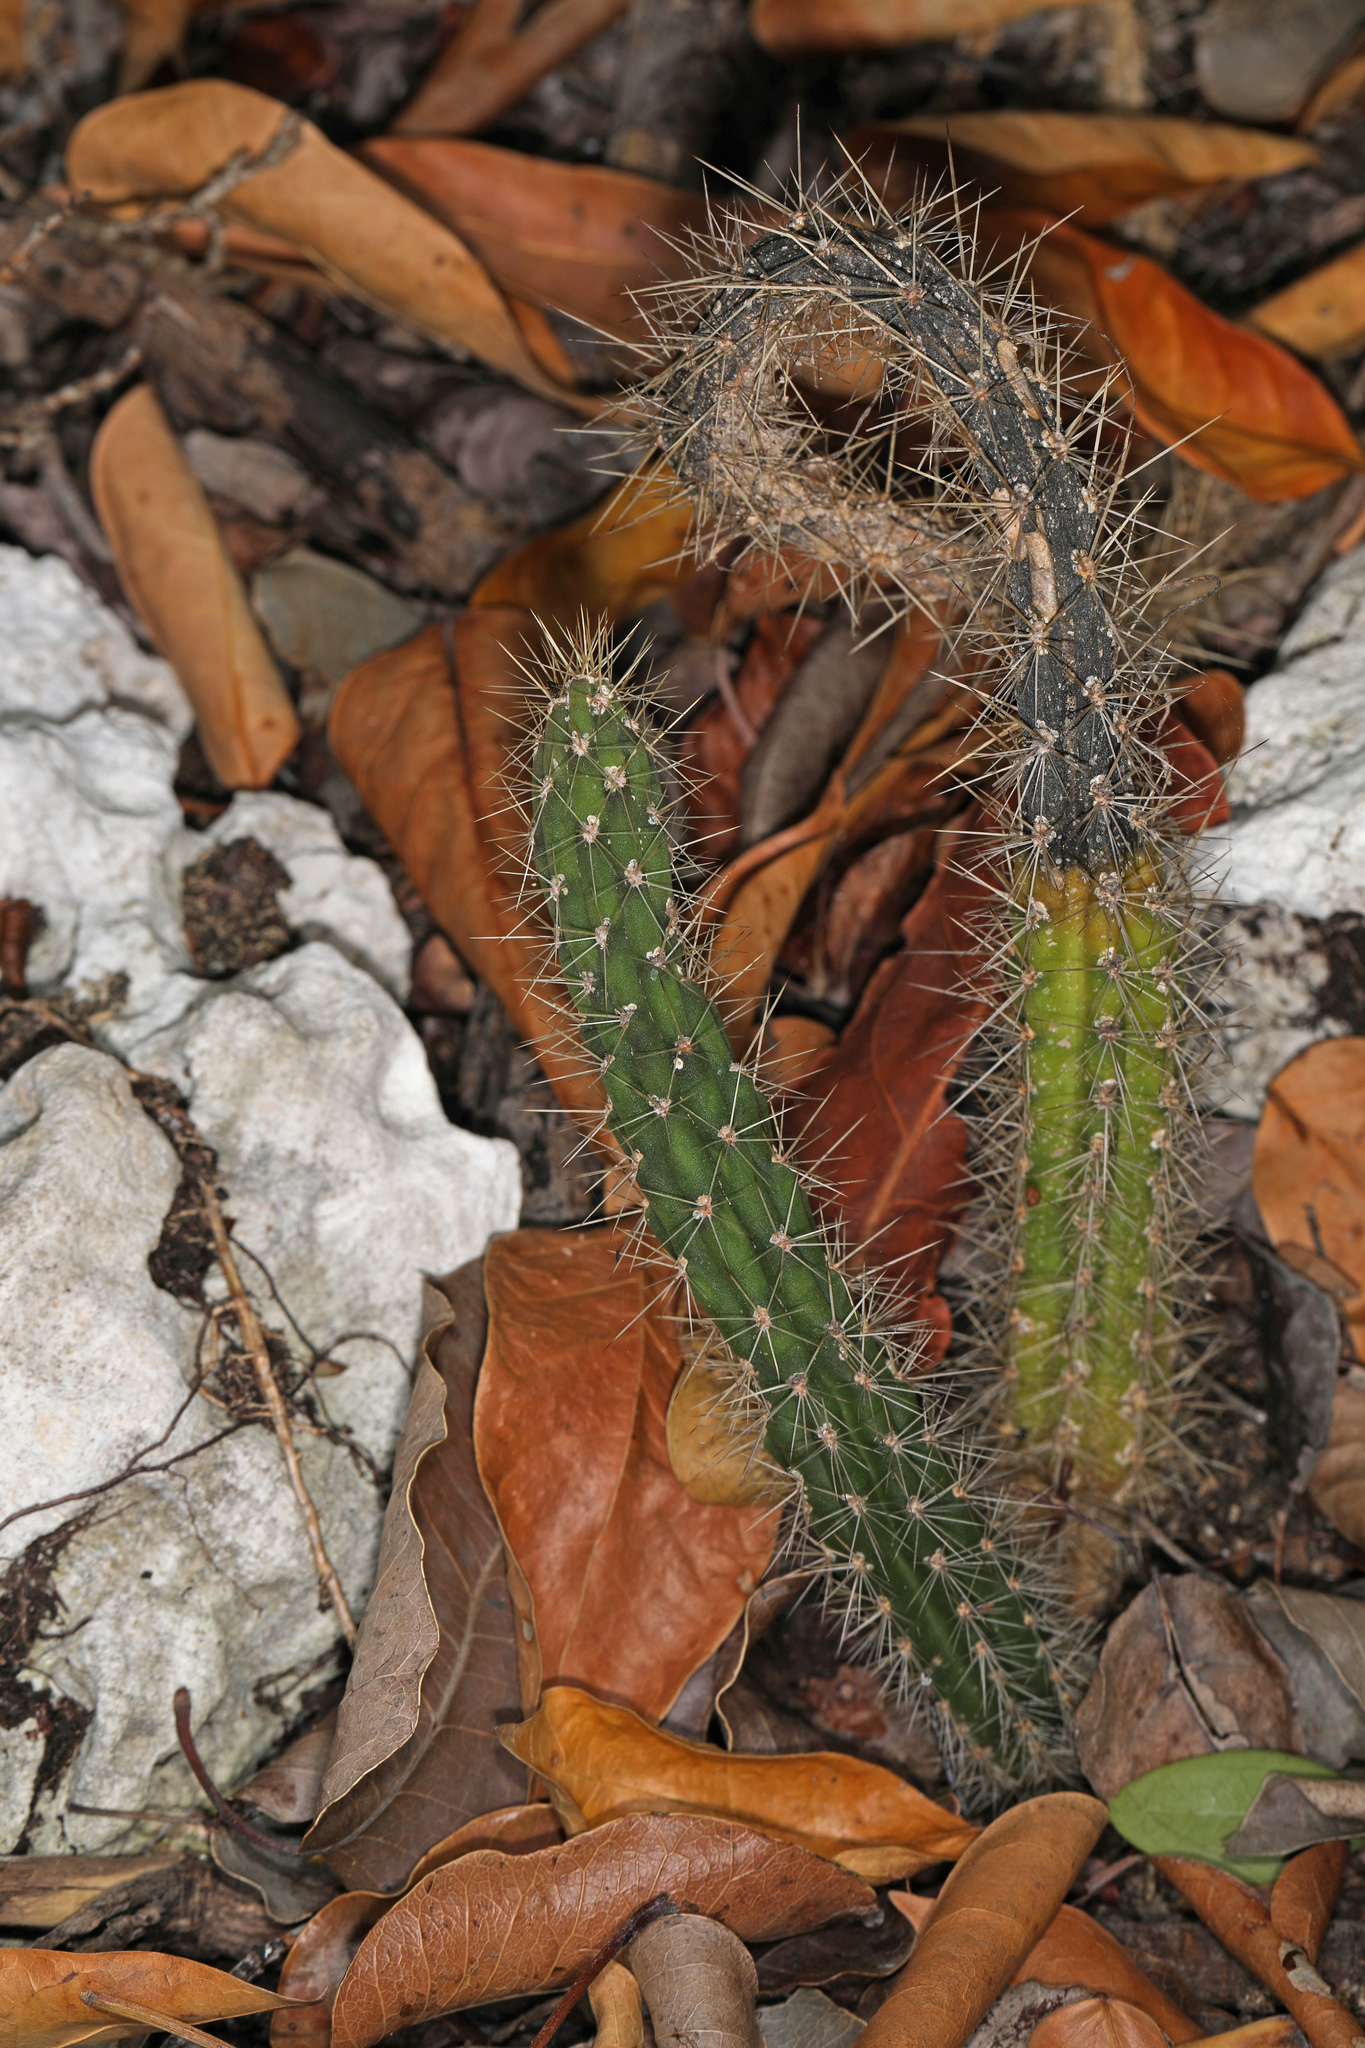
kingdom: Plantae
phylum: Tracheophyta
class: Magnoliopsida
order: Caryophyllales
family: Cactaceae
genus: Harrisia
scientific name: Harrisia fragrans
